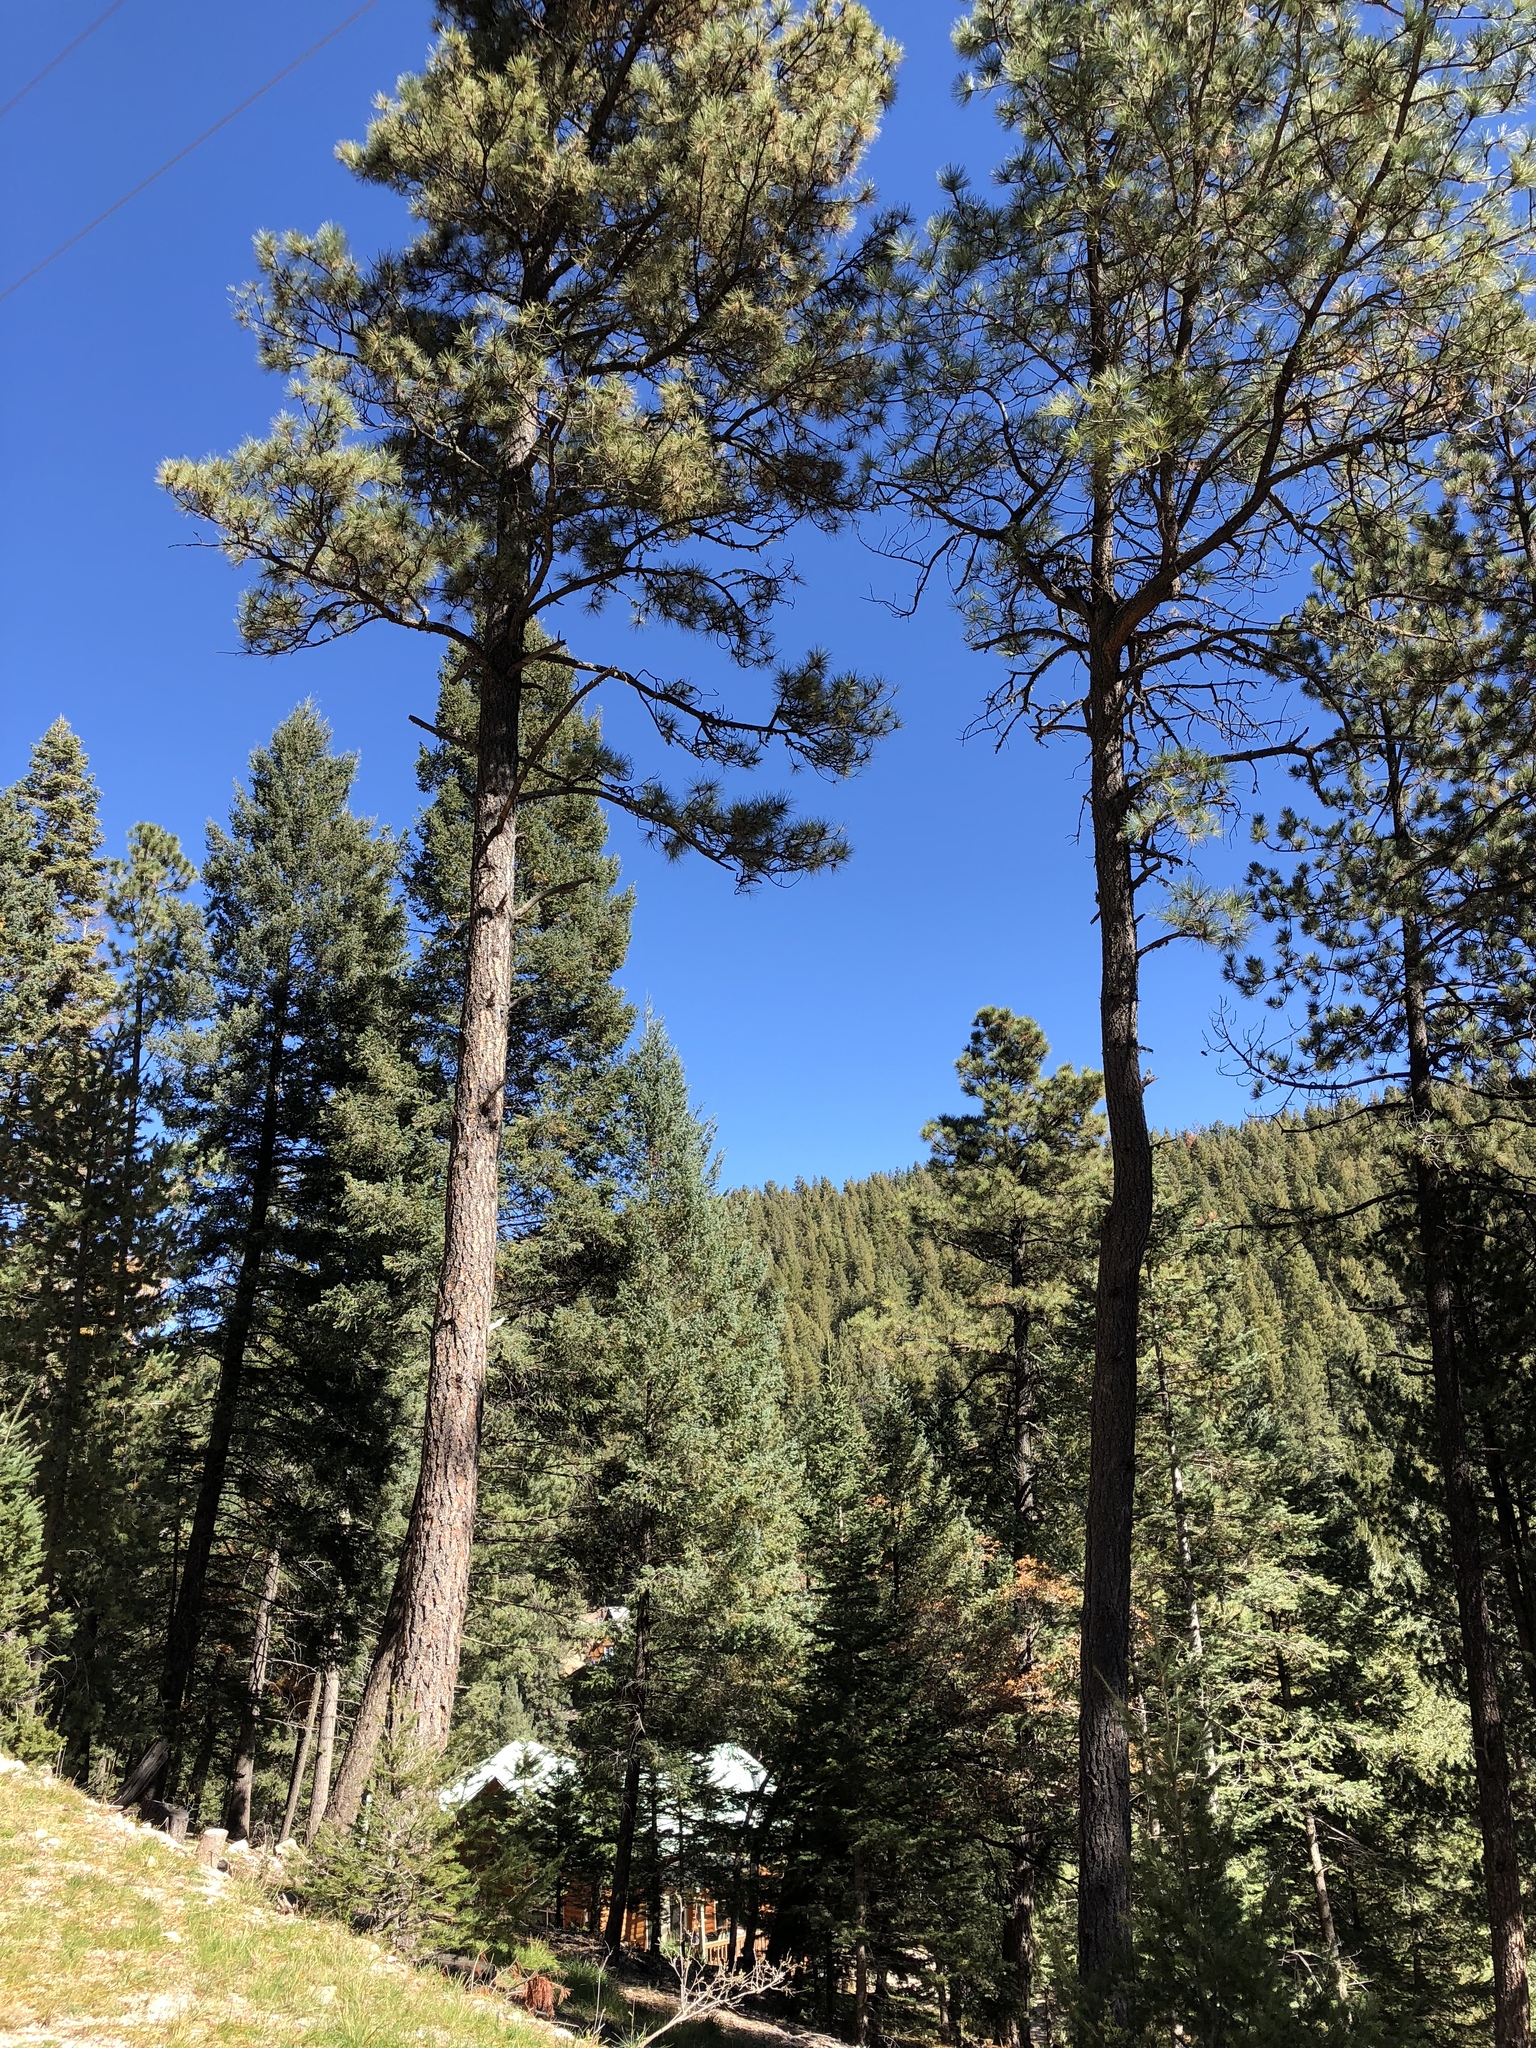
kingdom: Plantae
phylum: Tracheophyta
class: Pinopsida
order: Pinales
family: Pinaceae
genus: Pinus
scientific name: Pinus ponderosa
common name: Western yellow-pine
